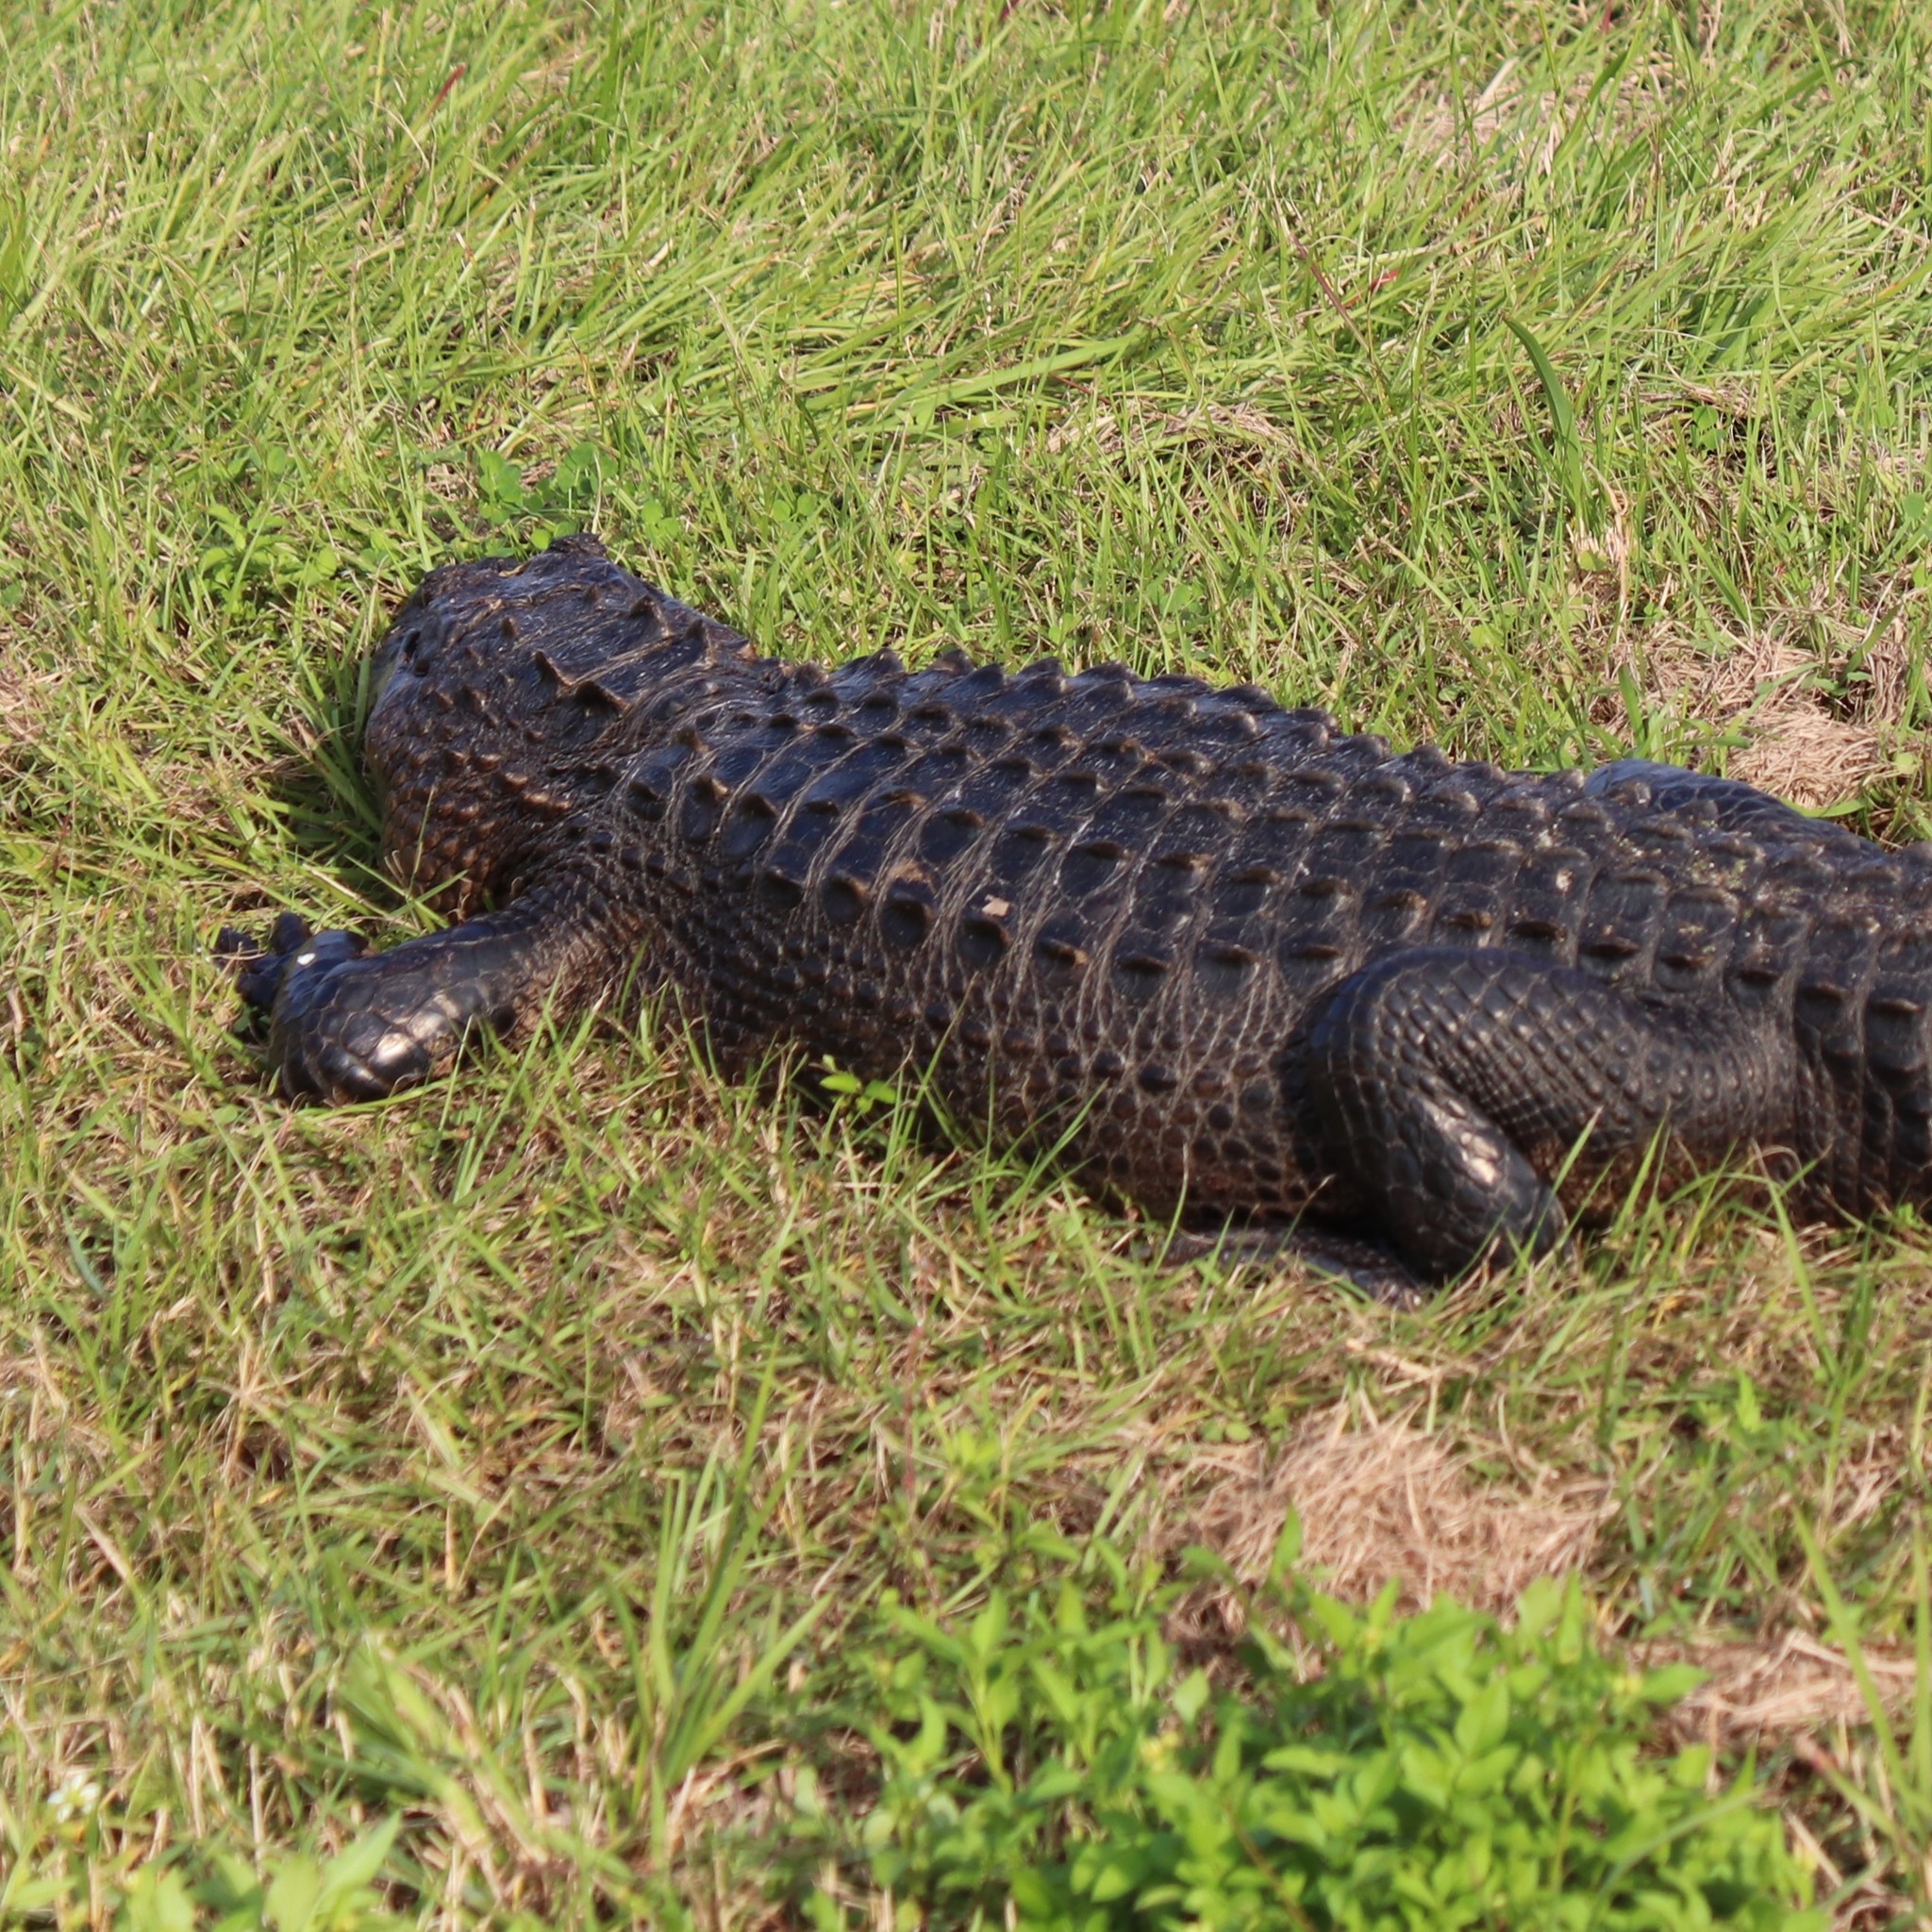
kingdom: Animalia
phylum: Chordata
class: Crocodylia
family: Alligatoridae
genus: Alligator
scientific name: Alligator mississippiensis
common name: American alligator
